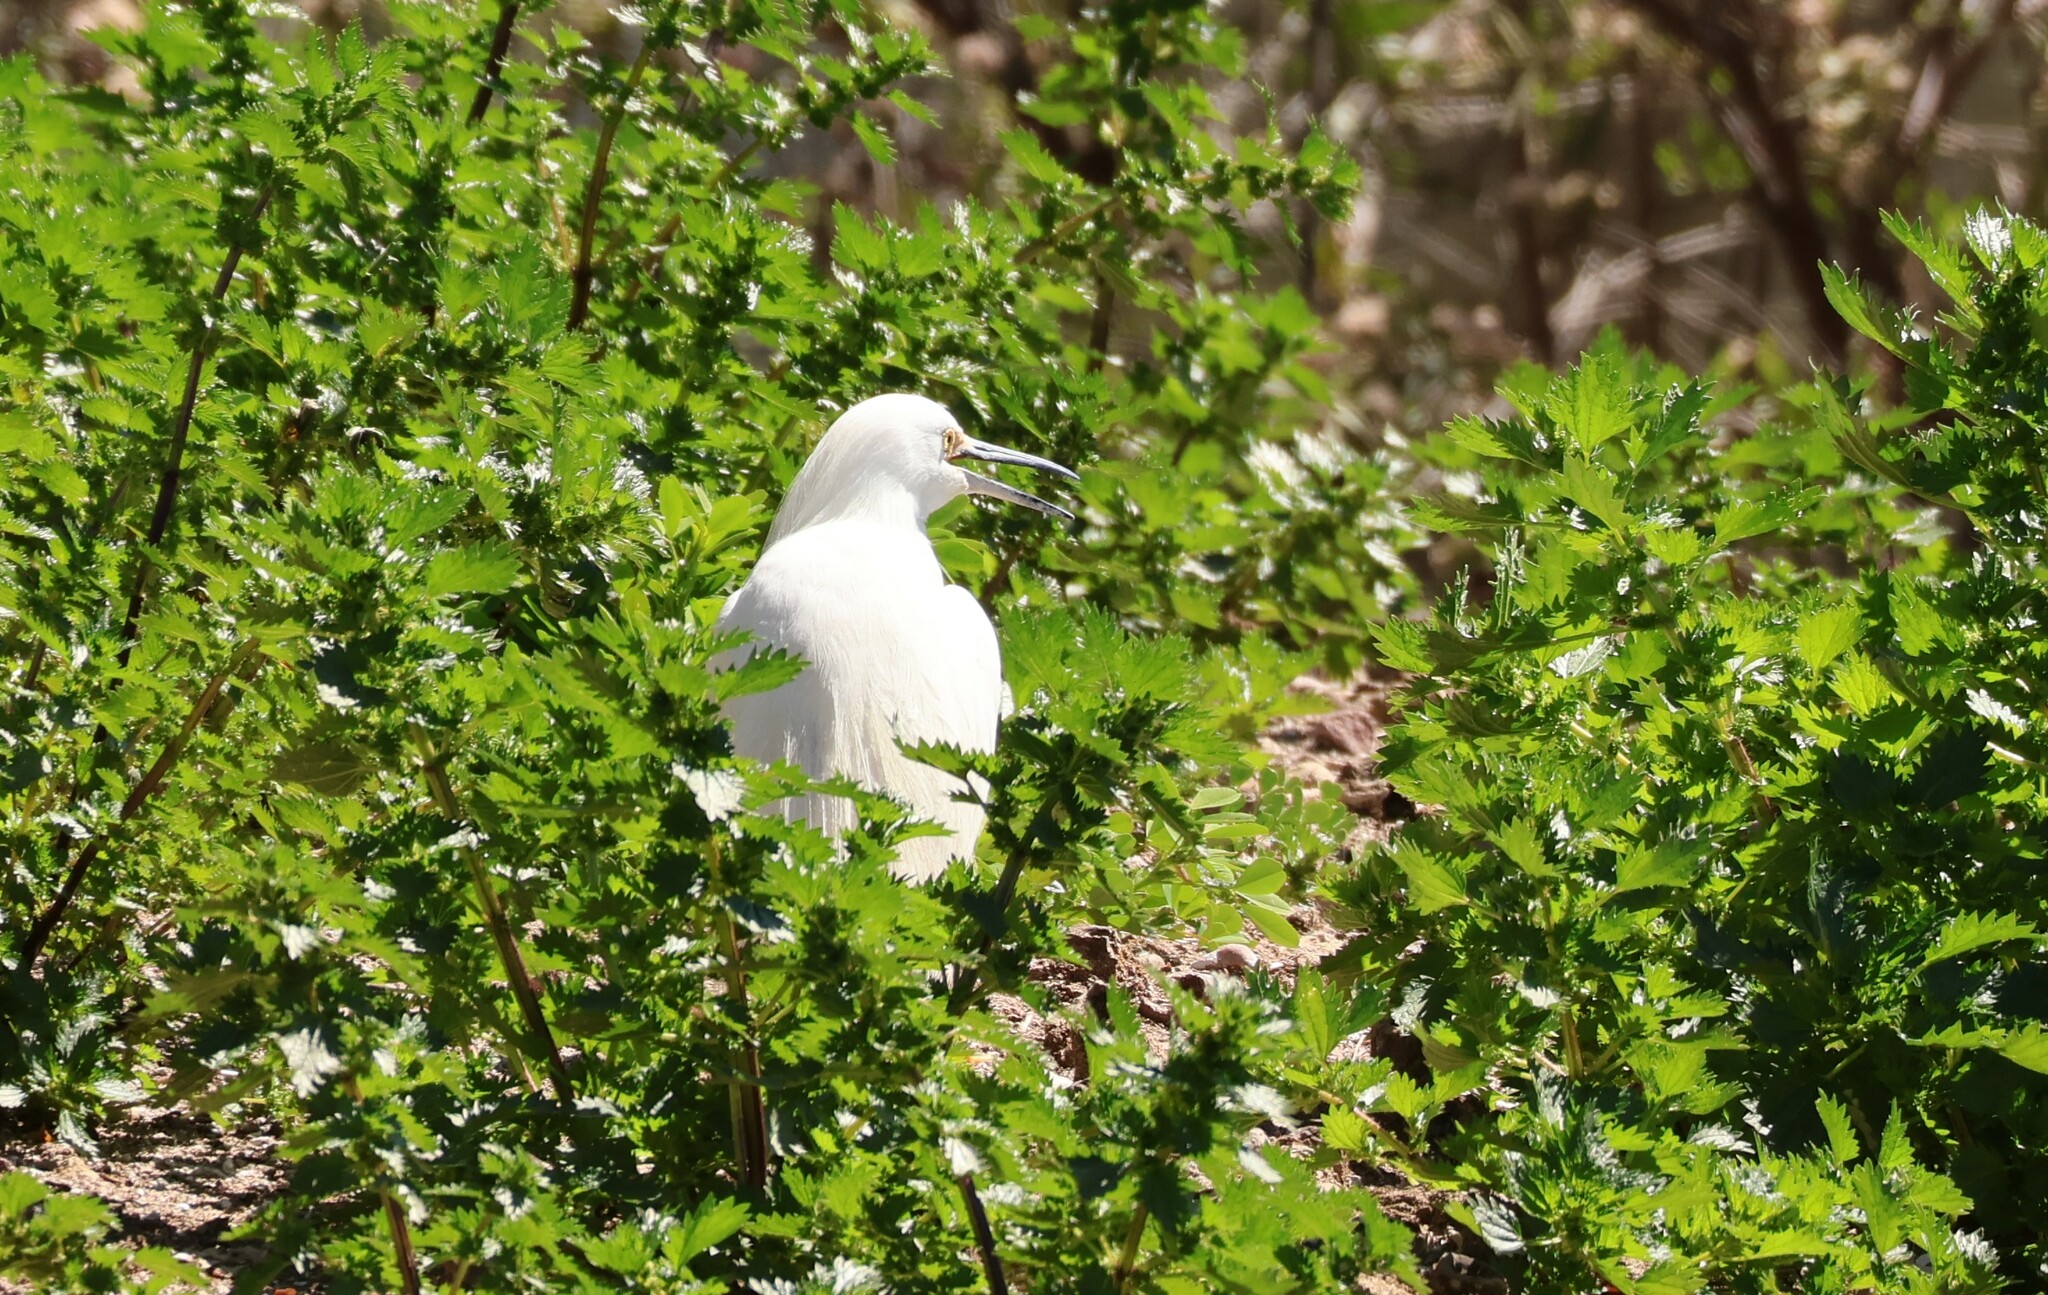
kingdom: Animalia
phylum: Chordata
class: Aves
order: Pelecaniformes
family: Ardeidae
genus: Egretta
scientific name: Egretta thula
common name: Snowy egret
